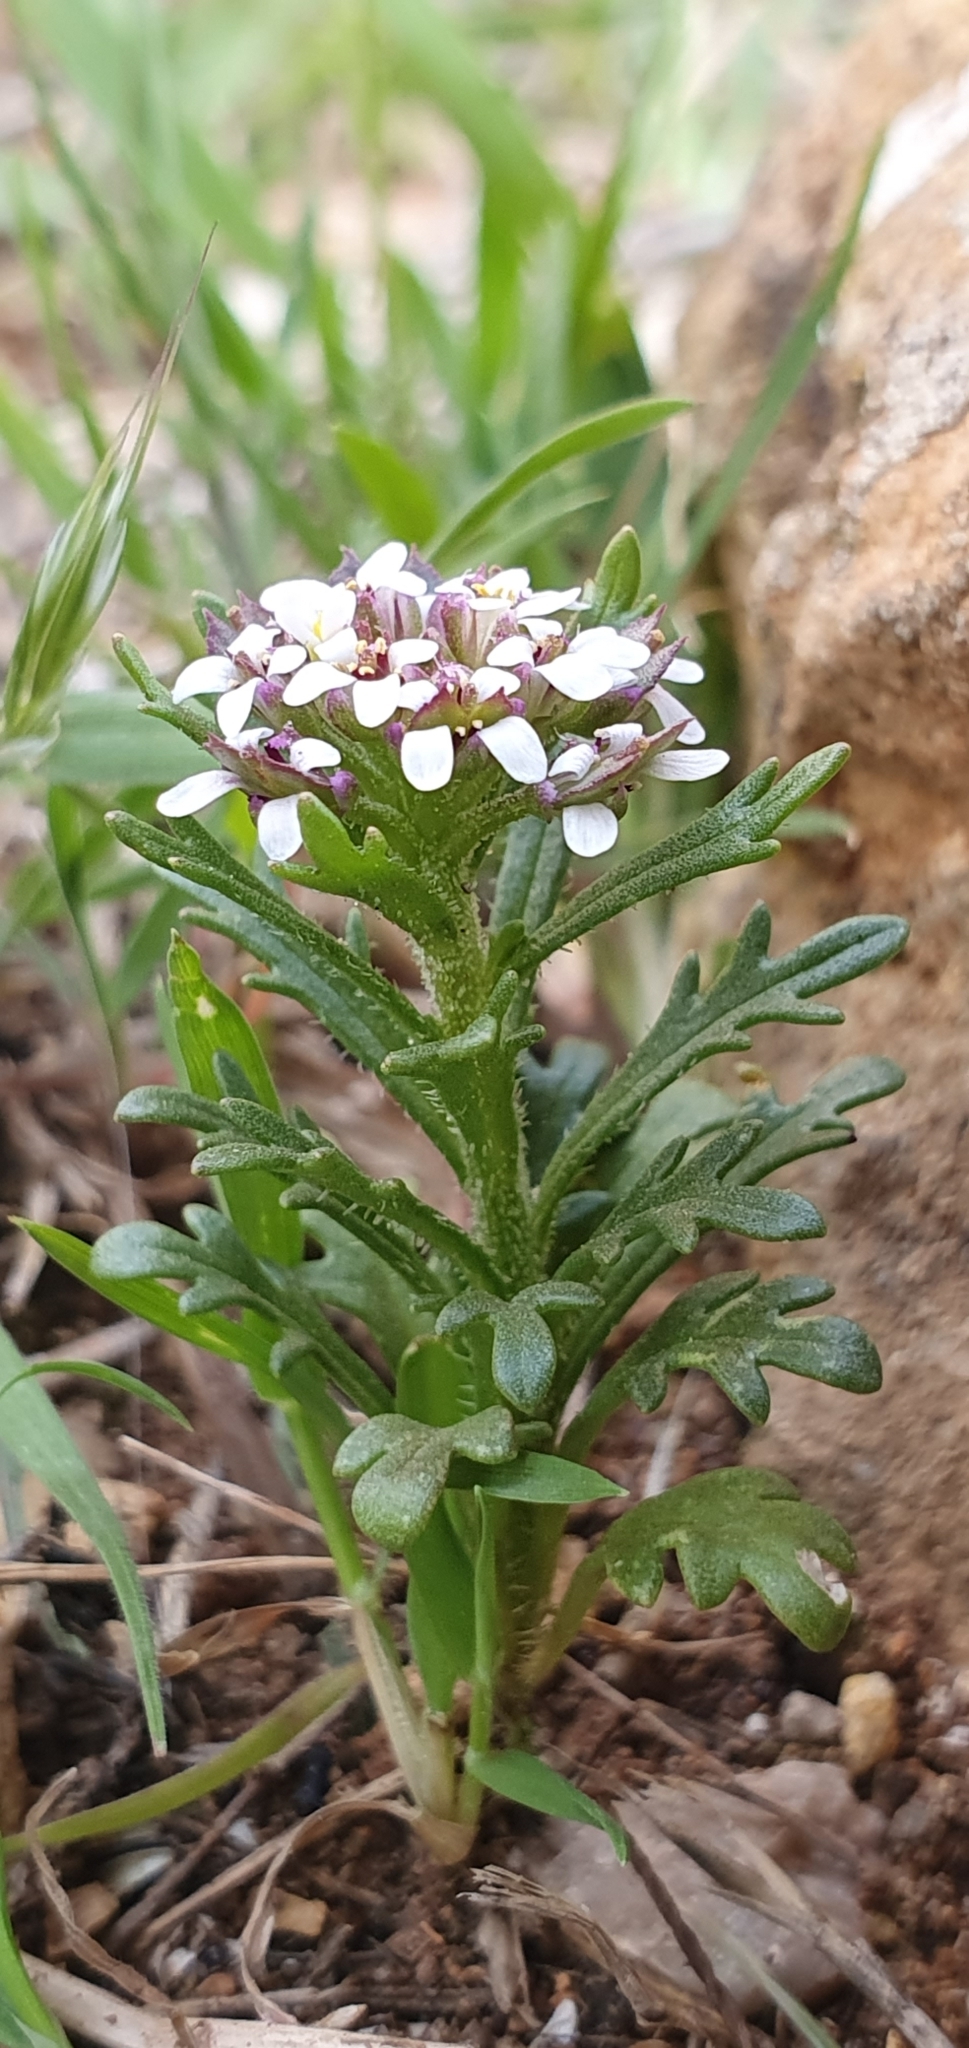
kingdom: Plantae
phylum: Tracheophyta
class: Magnoliopsida
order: Brassicales
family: Brassicaceae
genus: Iberis
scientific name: Iberis odorata
